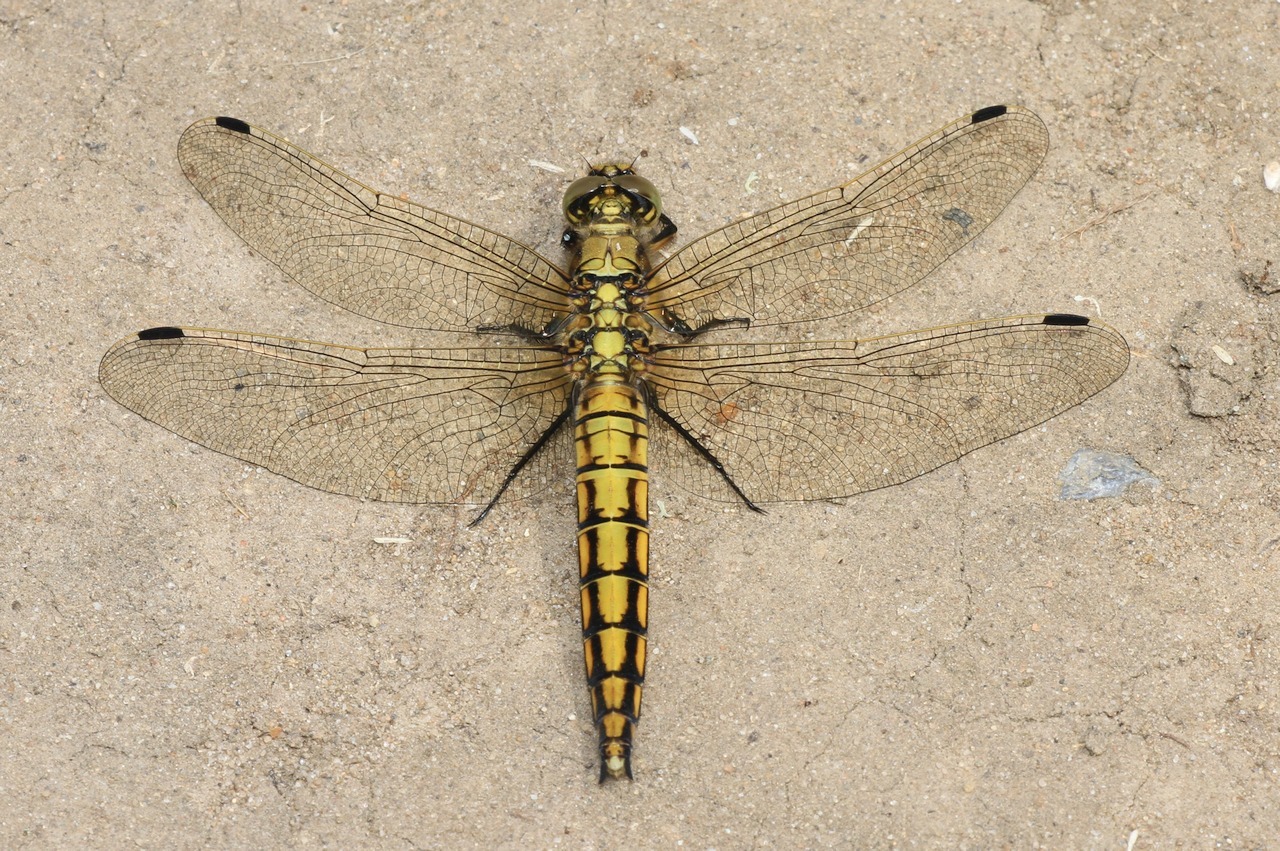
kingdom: Animalia
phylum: Arthropoda
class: Insecta
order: Odonata
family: Libellulidae
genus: Orthetrum
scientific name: Orthetrum cancellatum
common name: Black-tailed skimmer
